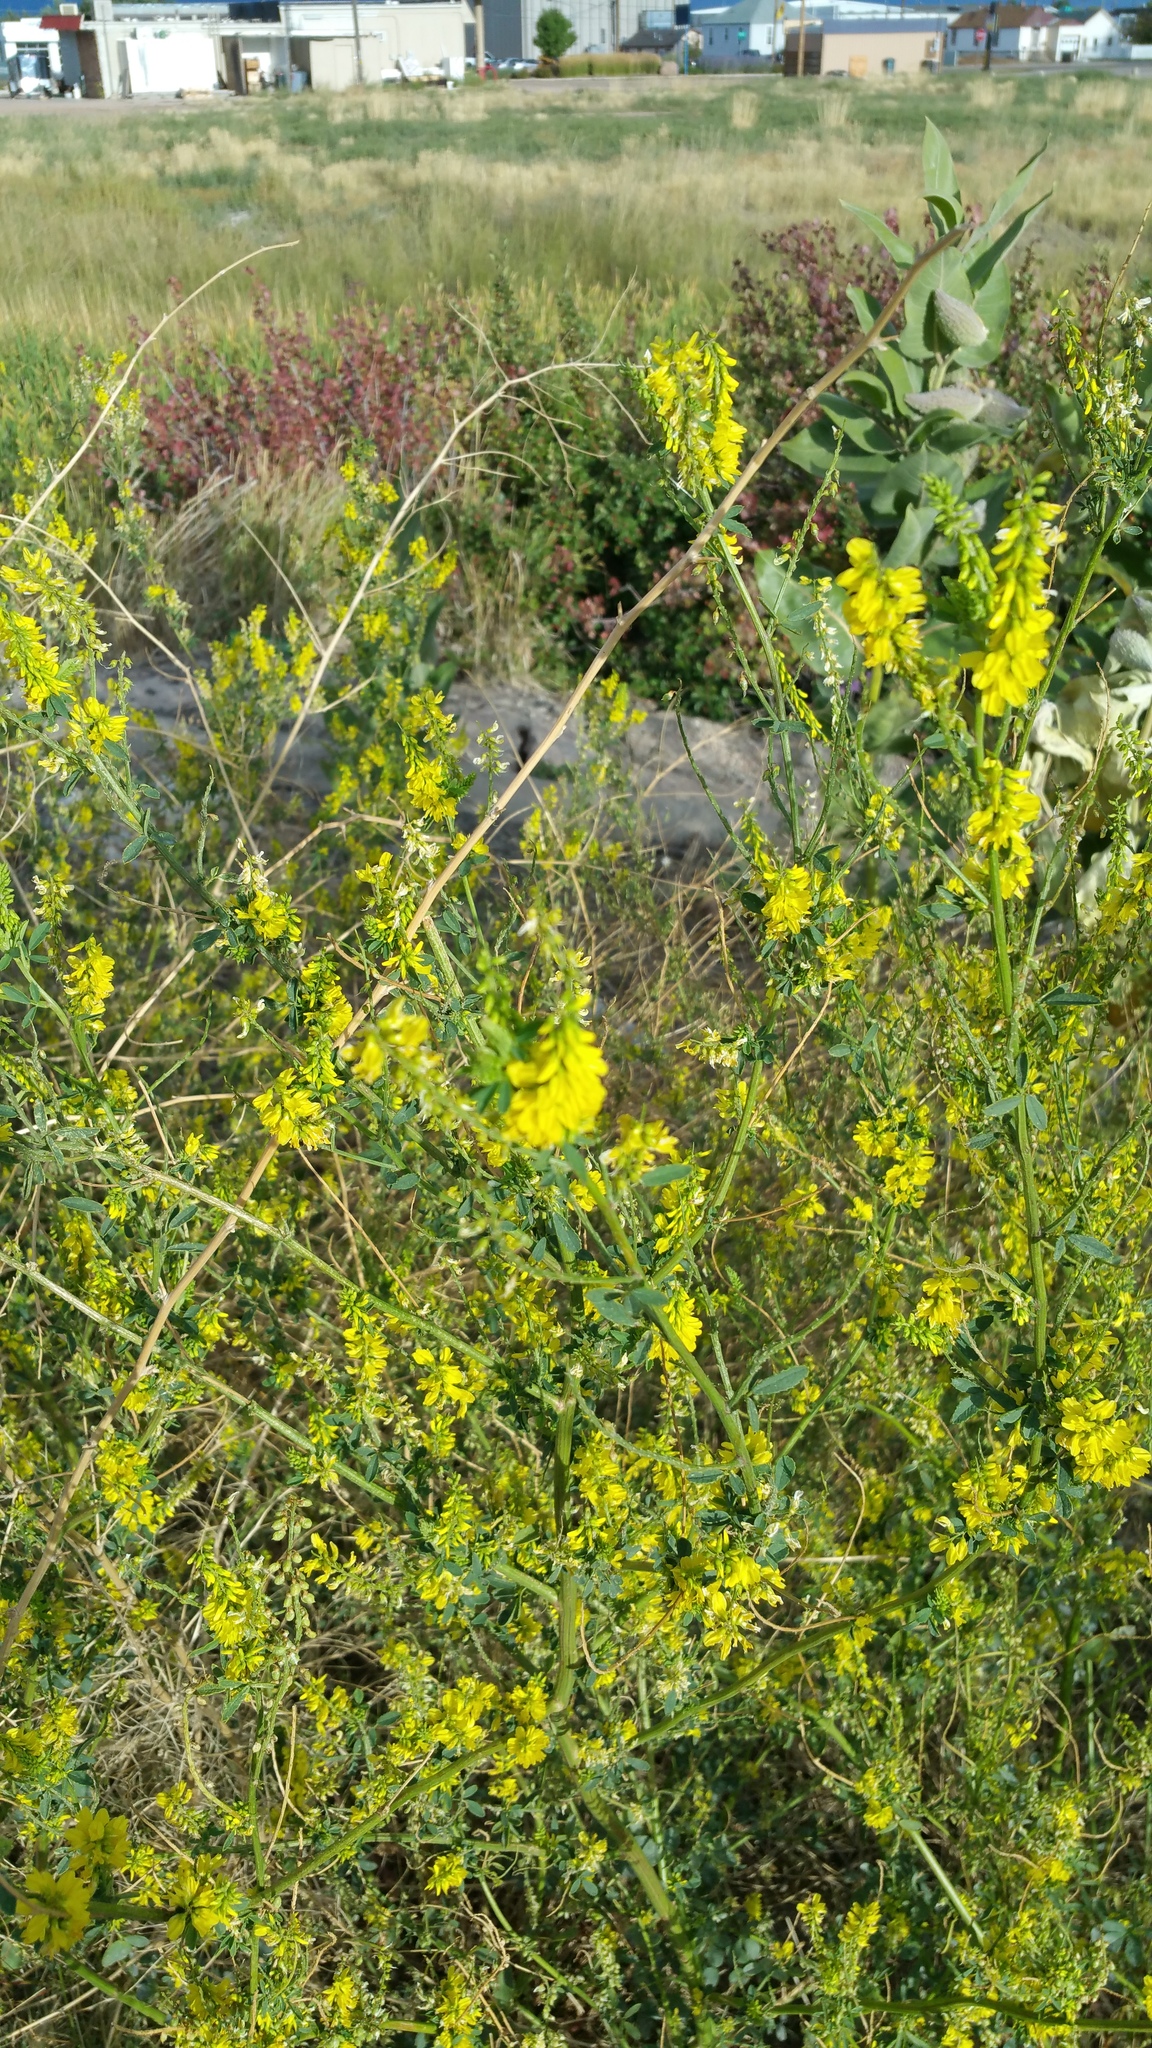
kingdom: Plantae
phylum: Tracheophyta
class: Magnoliopsida
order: Fabales
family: Fabaceae
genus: Melilotus
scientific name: Melilotus officinalis
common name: Sweetclover
